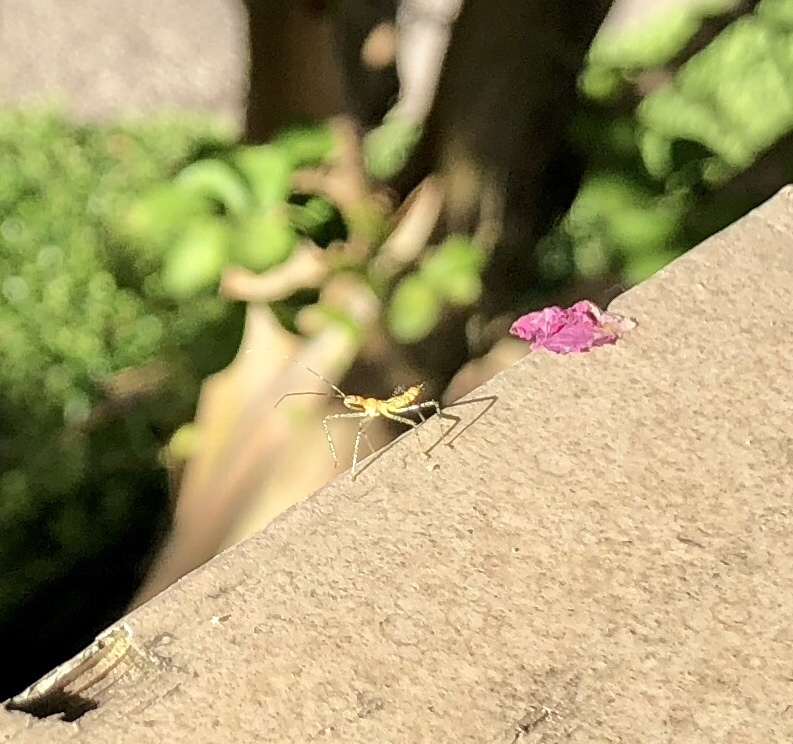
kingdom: Animalia
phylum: Arthropoda
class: Insecta
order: Hemiptera
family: Reduviidae
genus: Zelus
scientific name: Zelus renardii
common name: Assassin bug
